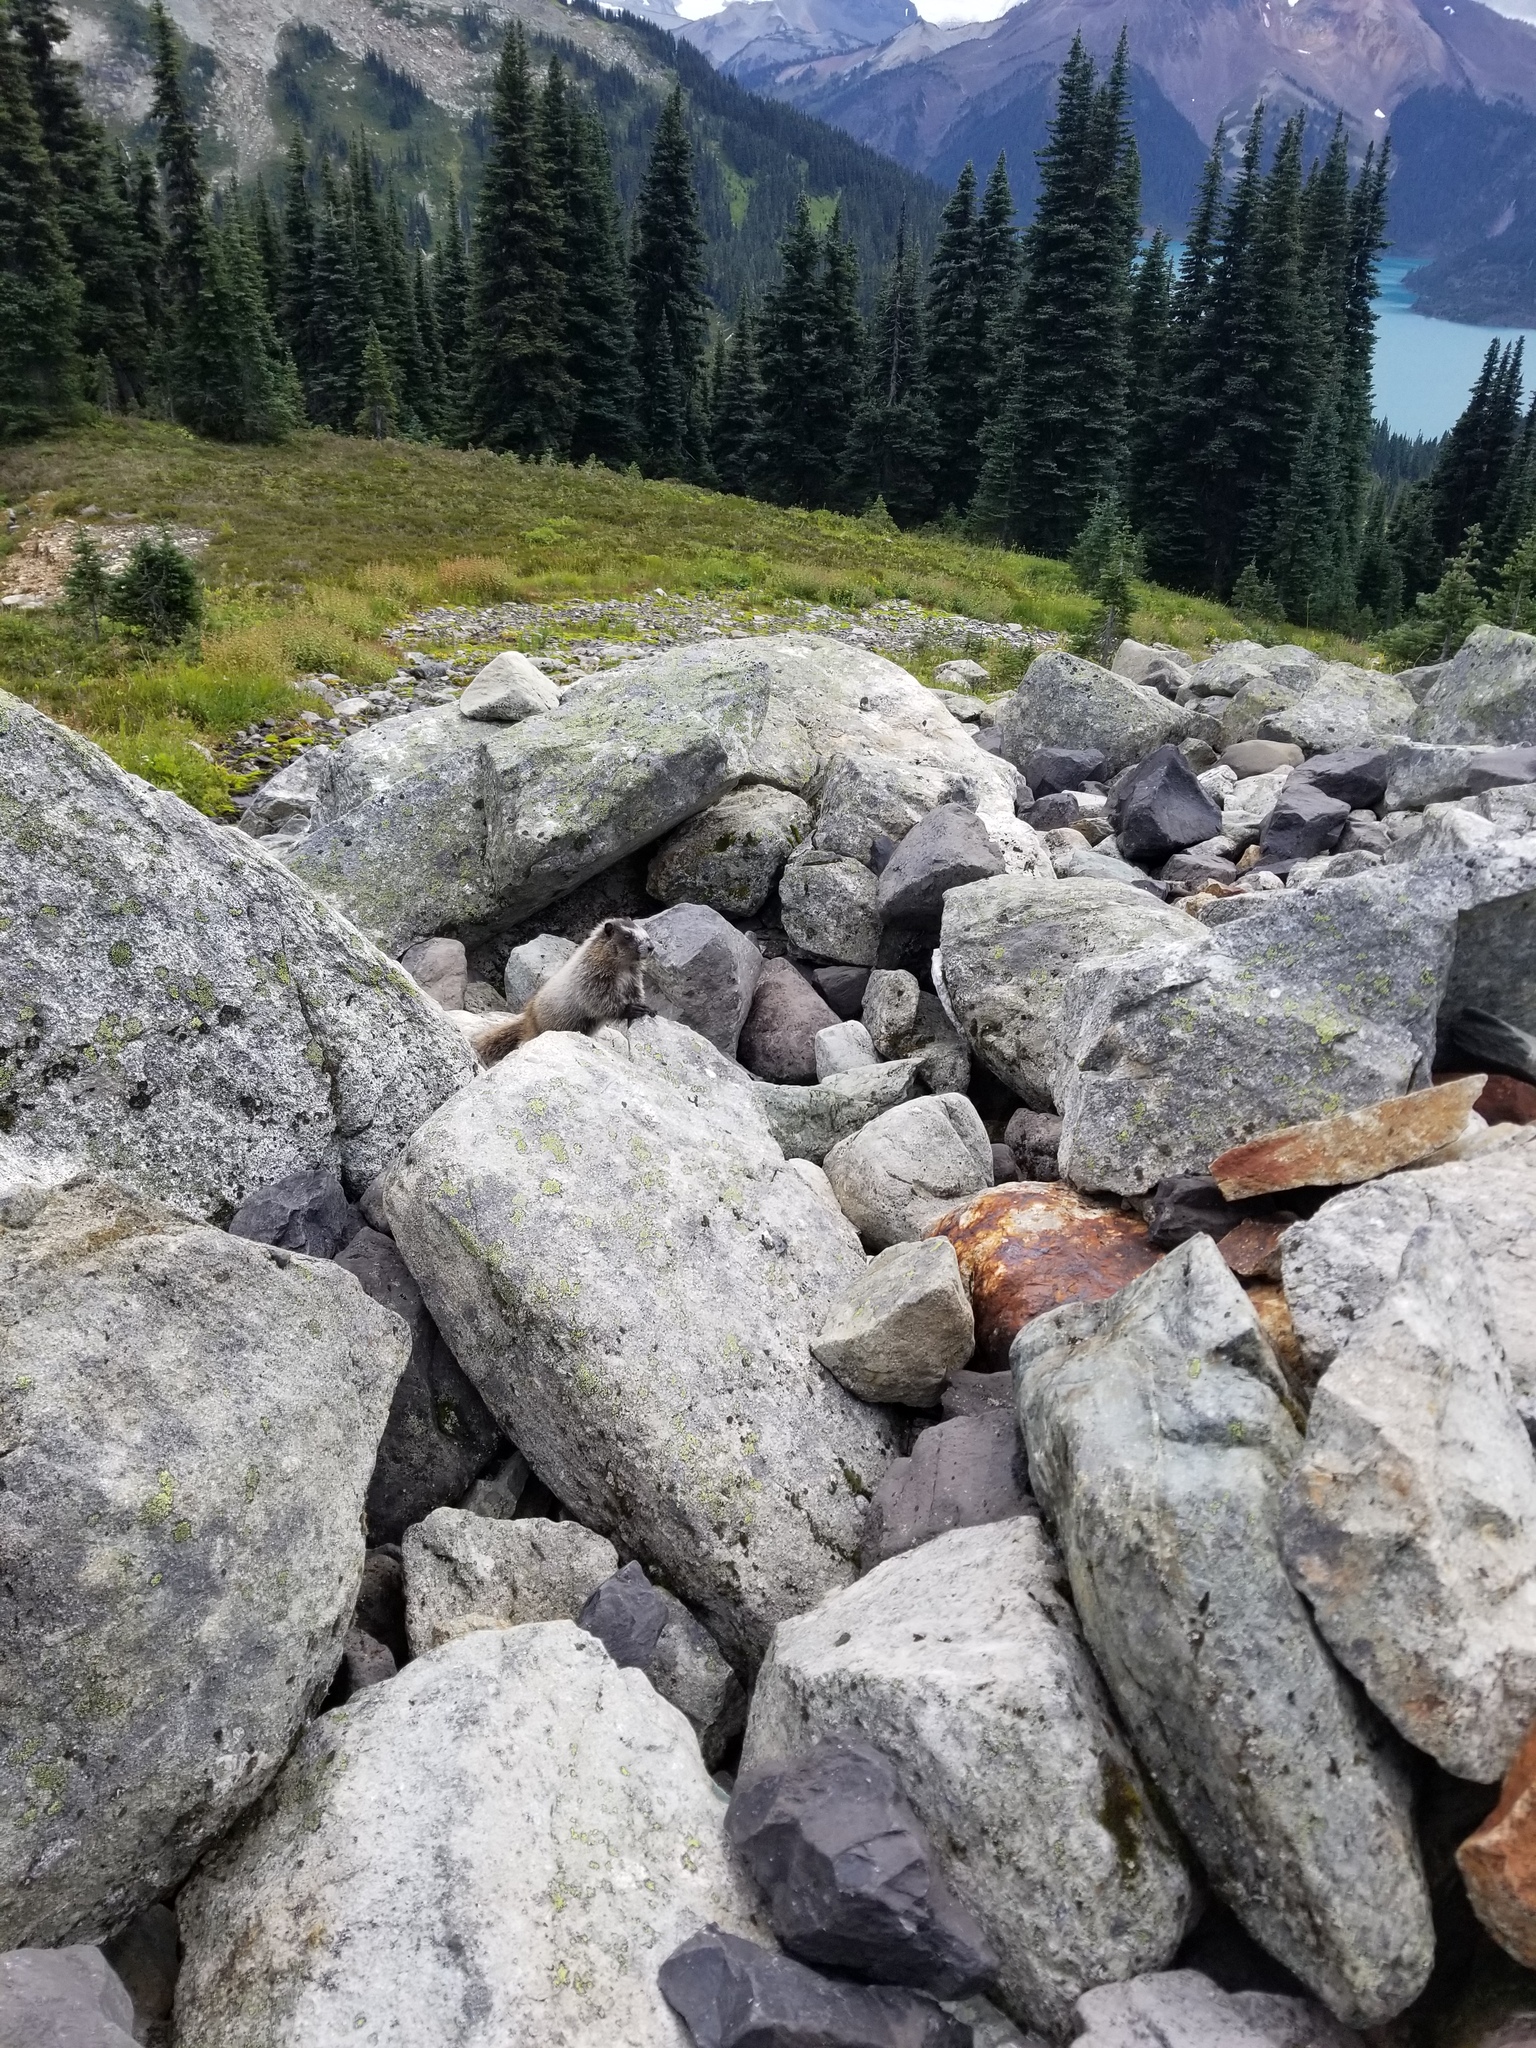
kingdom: Animalia
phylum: Chordata
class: Mammalia
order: Rodentia
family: Sciuridae
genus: Marmota
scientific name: Marmota caligata
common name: Hoary marmot
